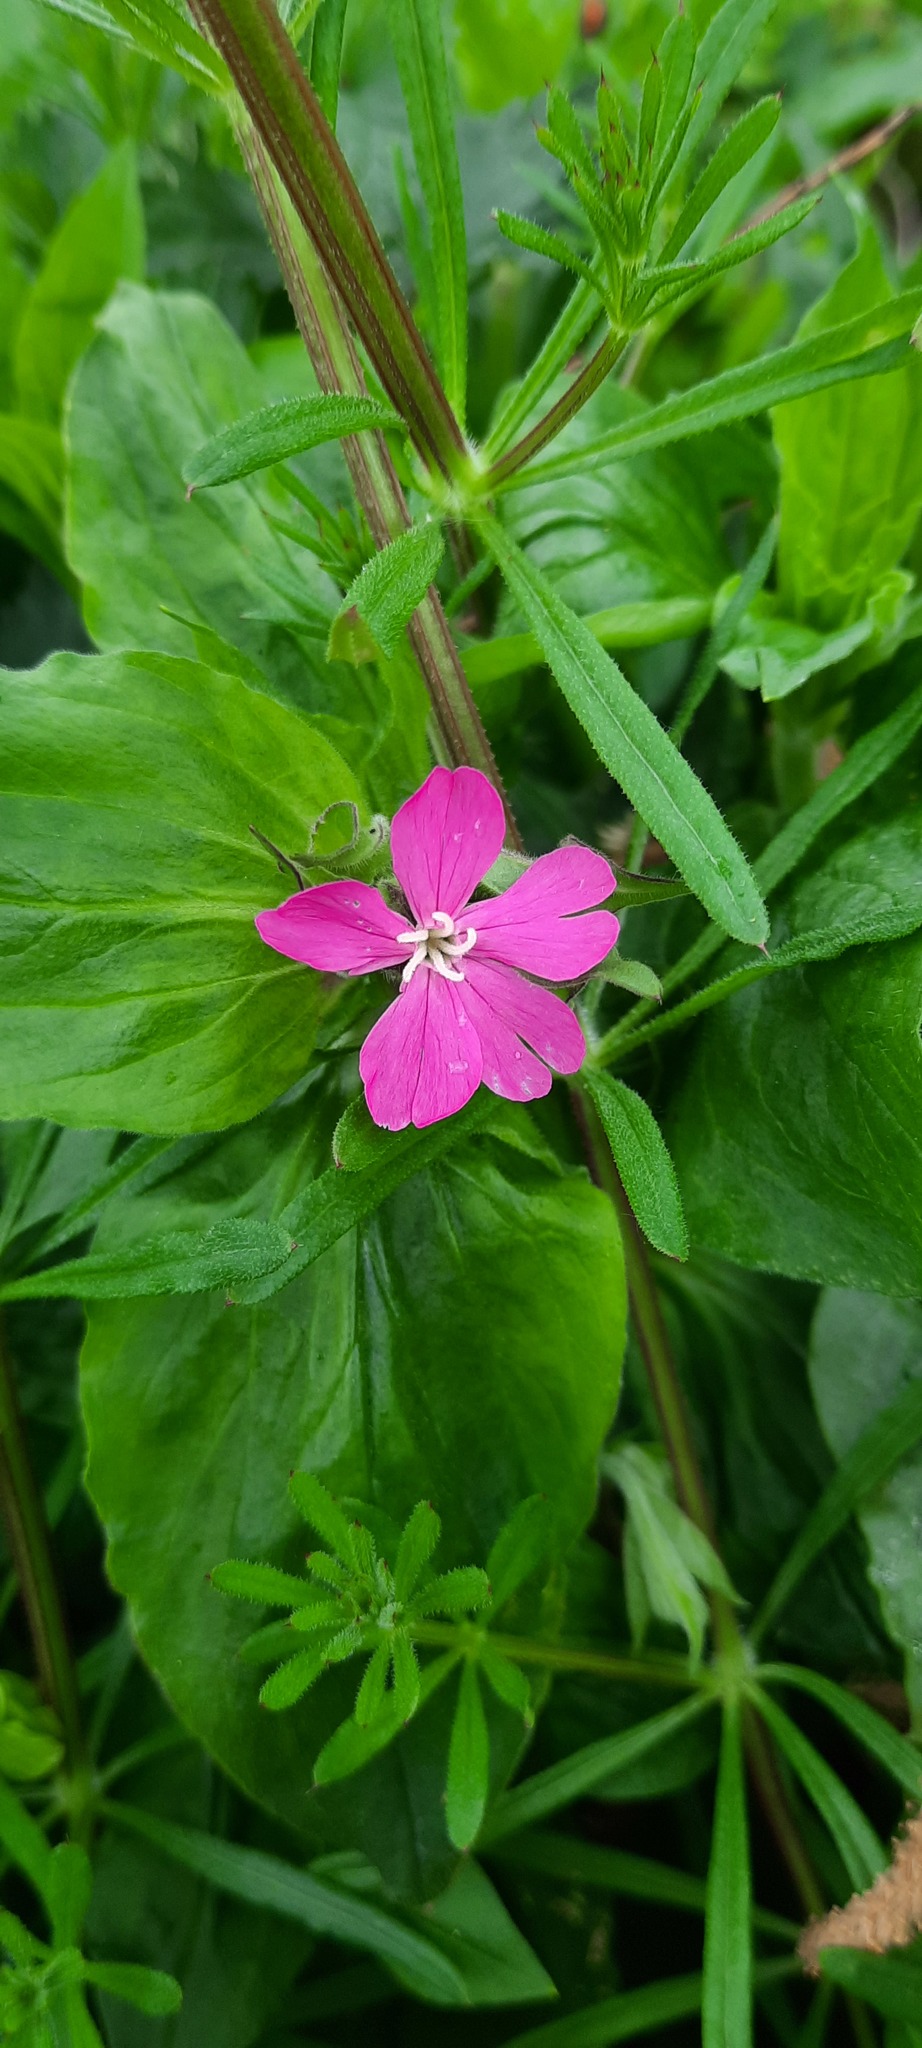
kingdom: Plantae
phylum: Tracheophyta
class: Magnoliopsida
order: Caryophyllales
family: Caryophyllaceae
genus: Silene
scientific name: Silene dioica
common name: Red campion
